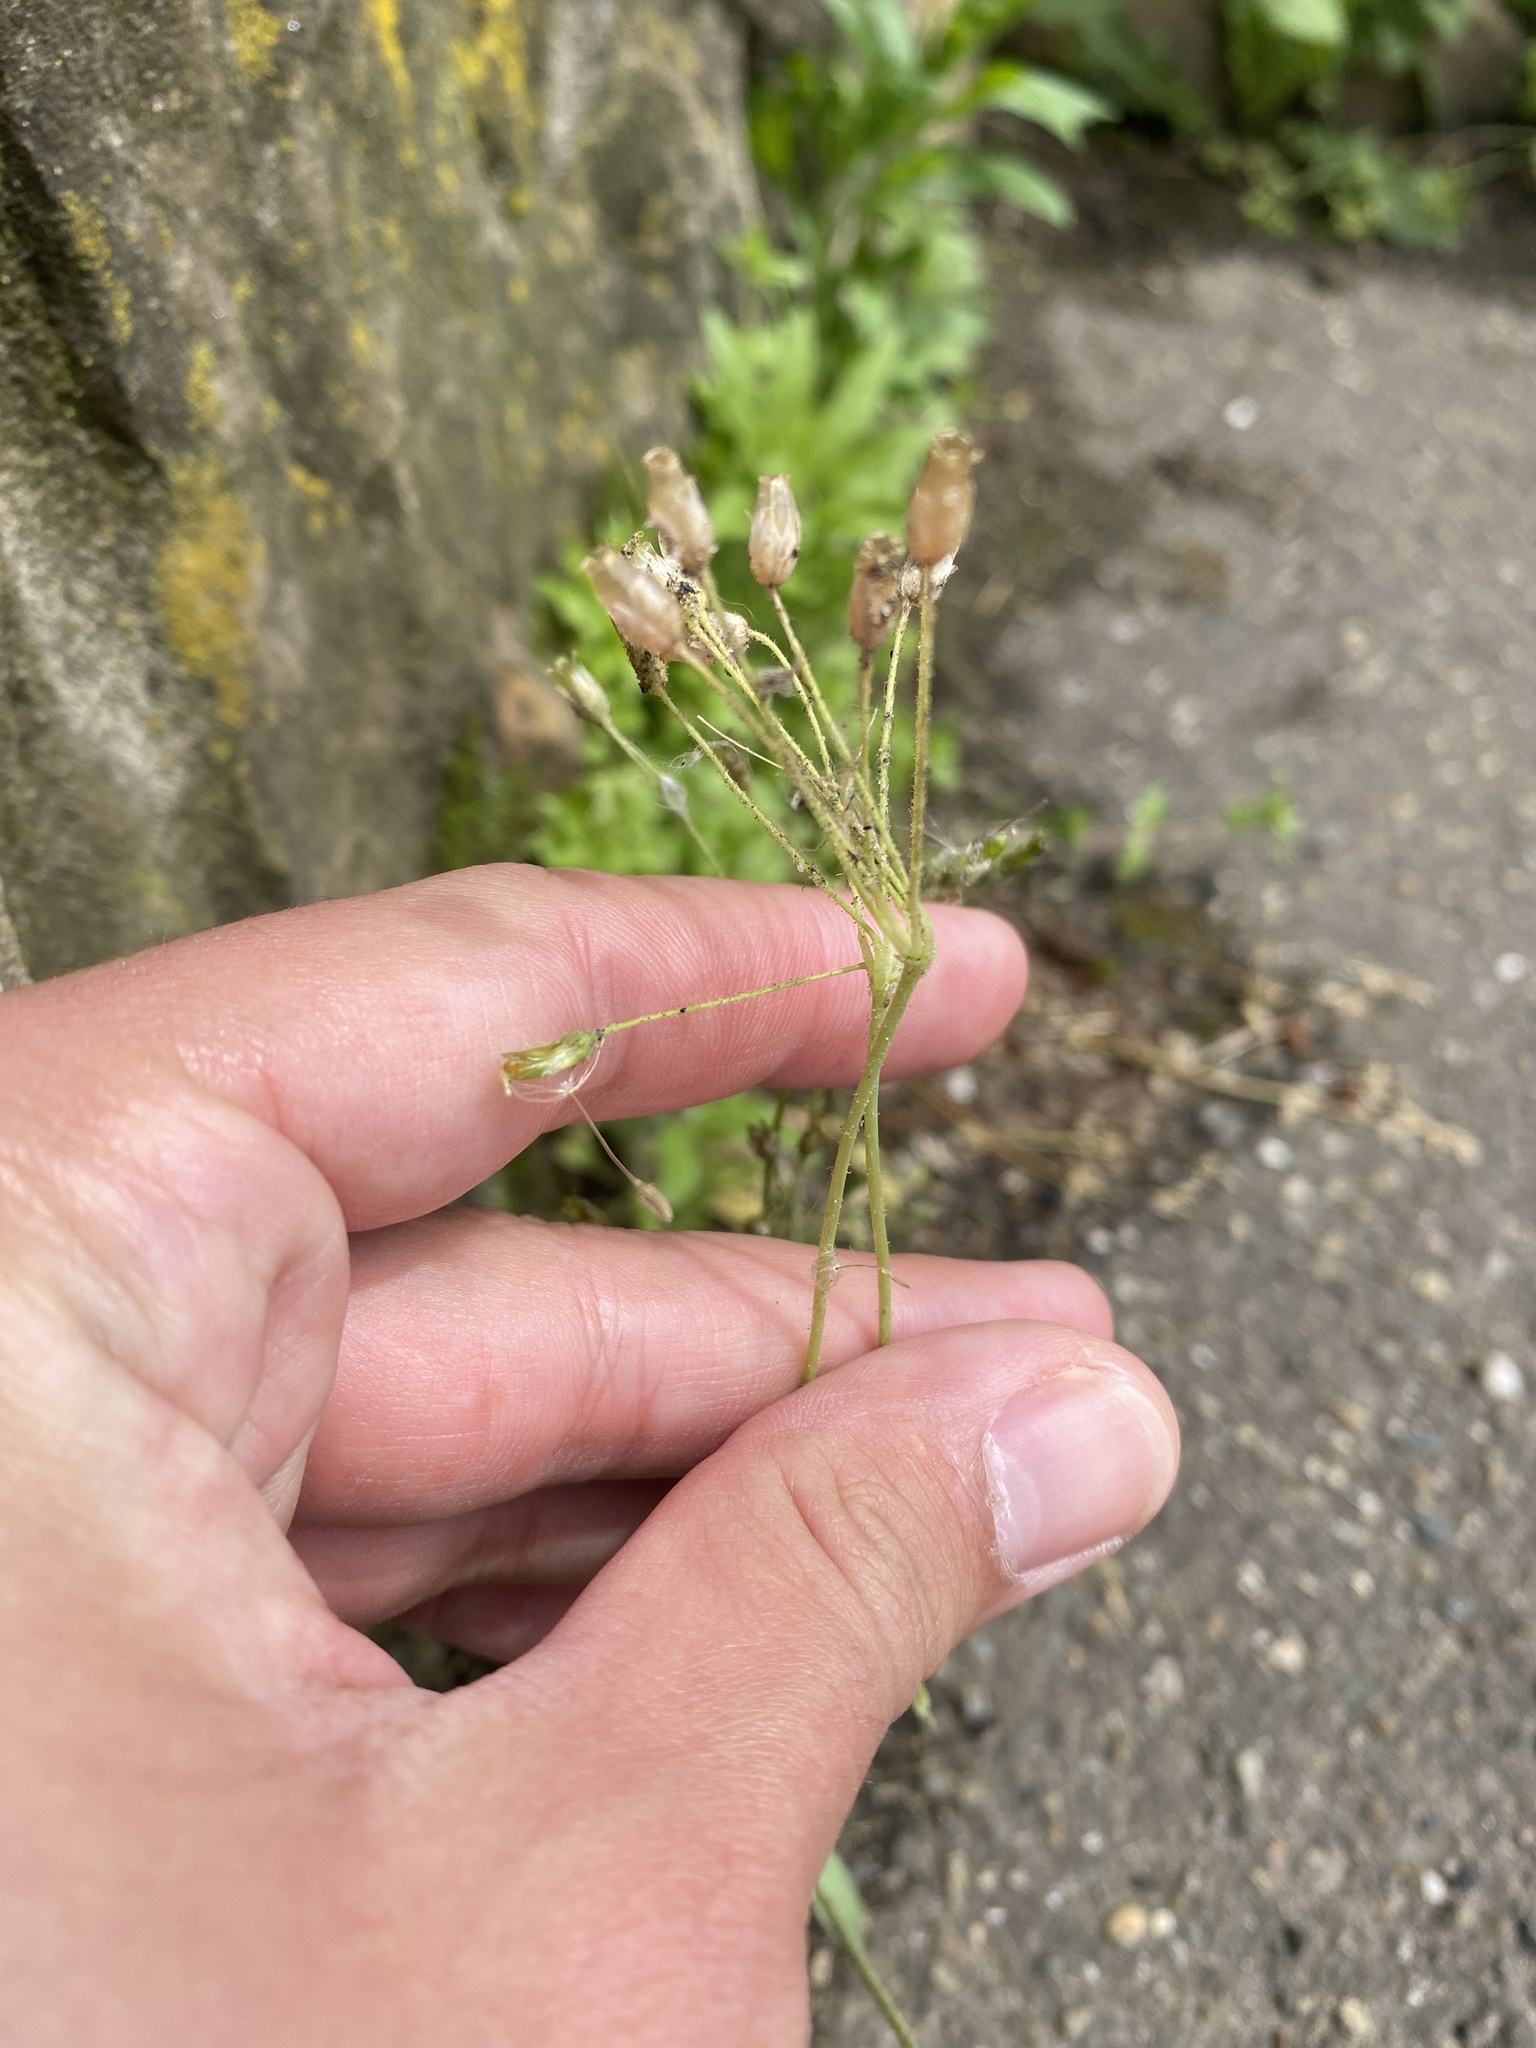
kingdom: Plantae
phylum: Tracheophyta
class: Magnoliopsida
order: Caryophyllales
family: Caryophyllaceae
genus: Holosteum
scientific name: Holosteum umbellatum
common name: Jagged chickweed
